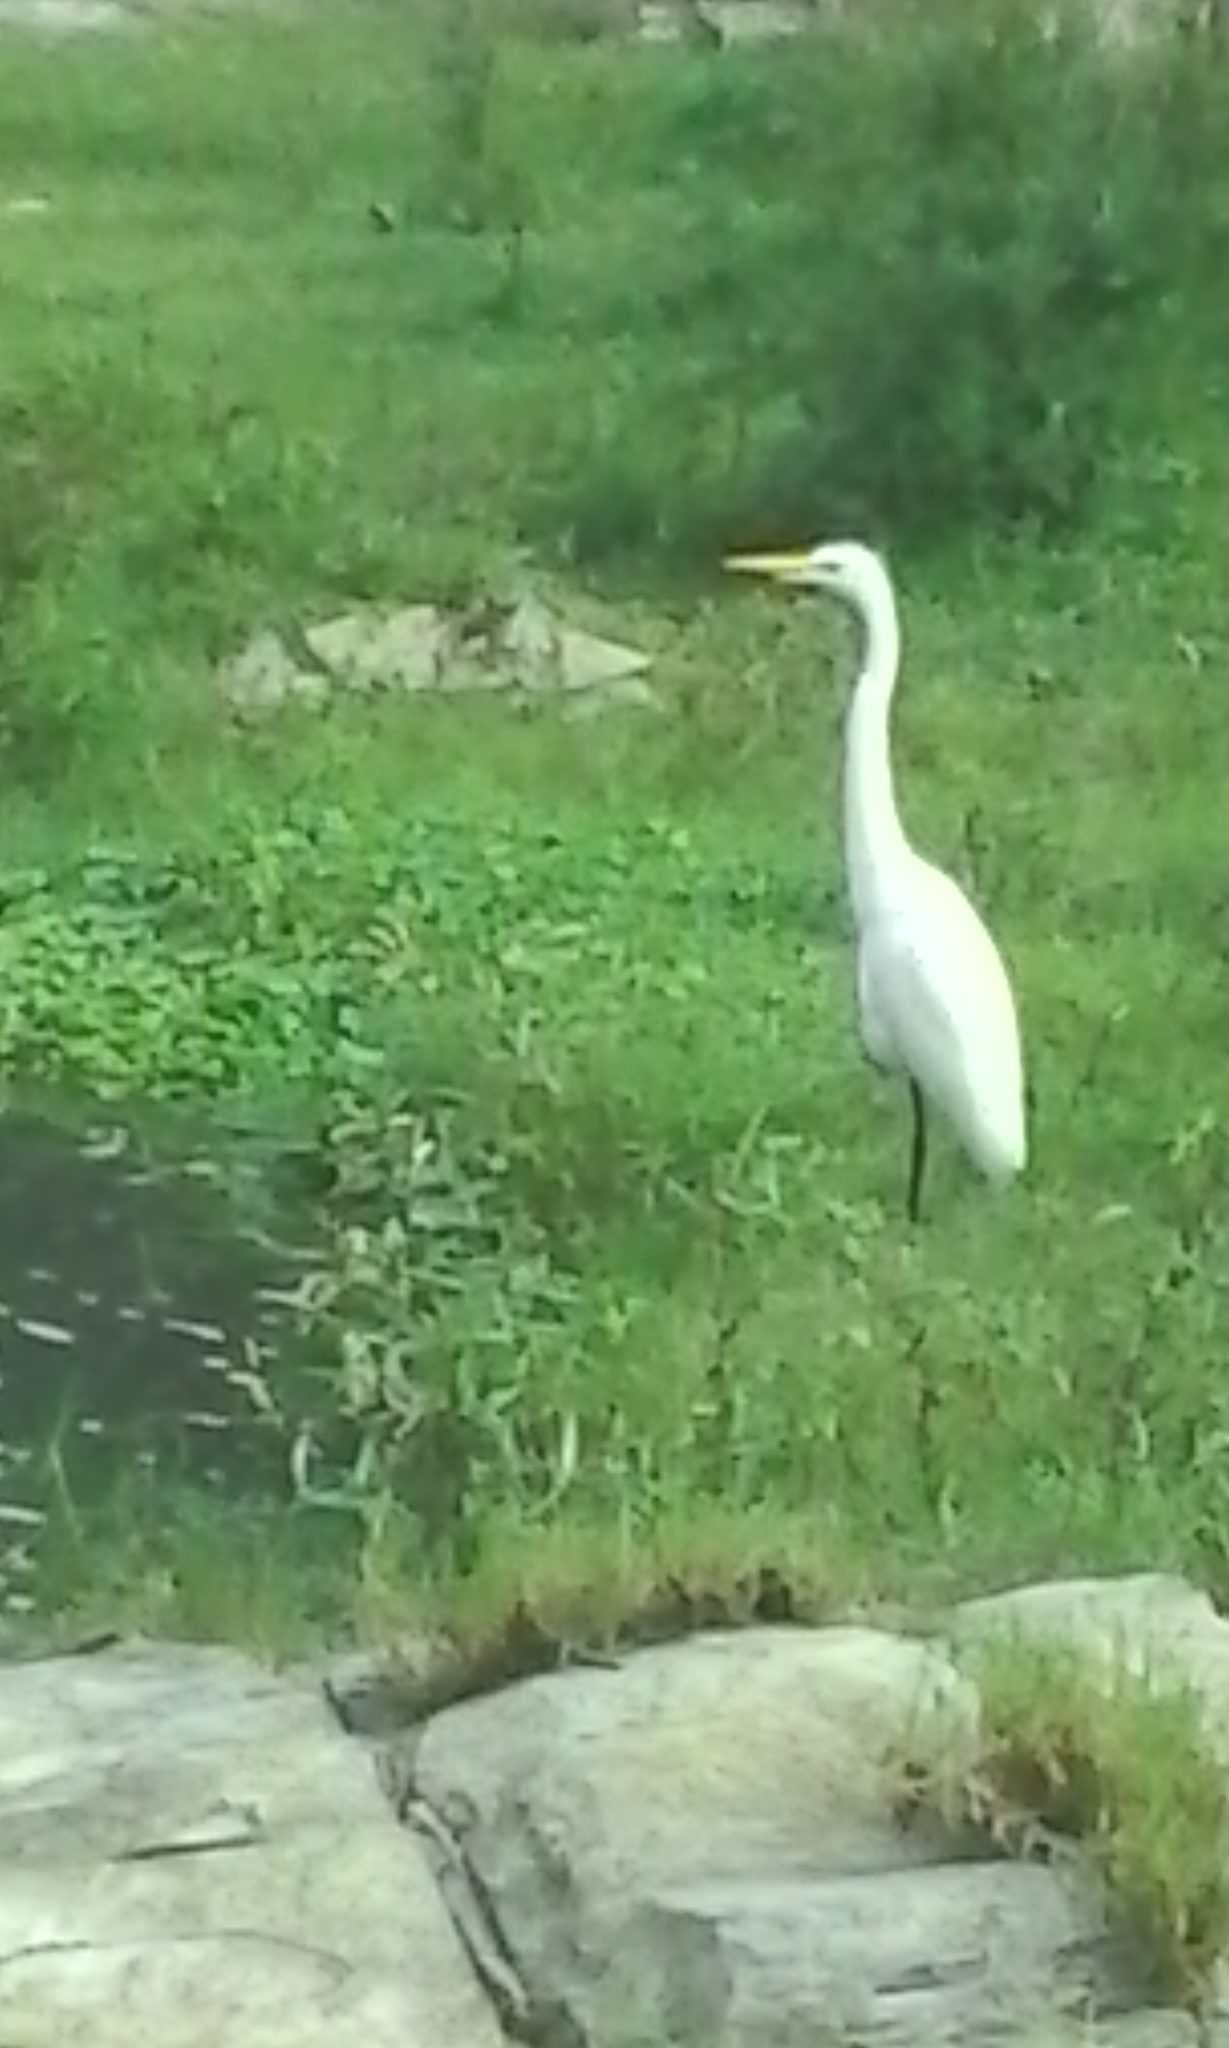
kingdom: Animalia
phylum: Chordata
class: Aves
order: Pelecaniformes
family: Ardeidae
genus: Ardea
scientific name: Ardea alba
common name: Great egret
